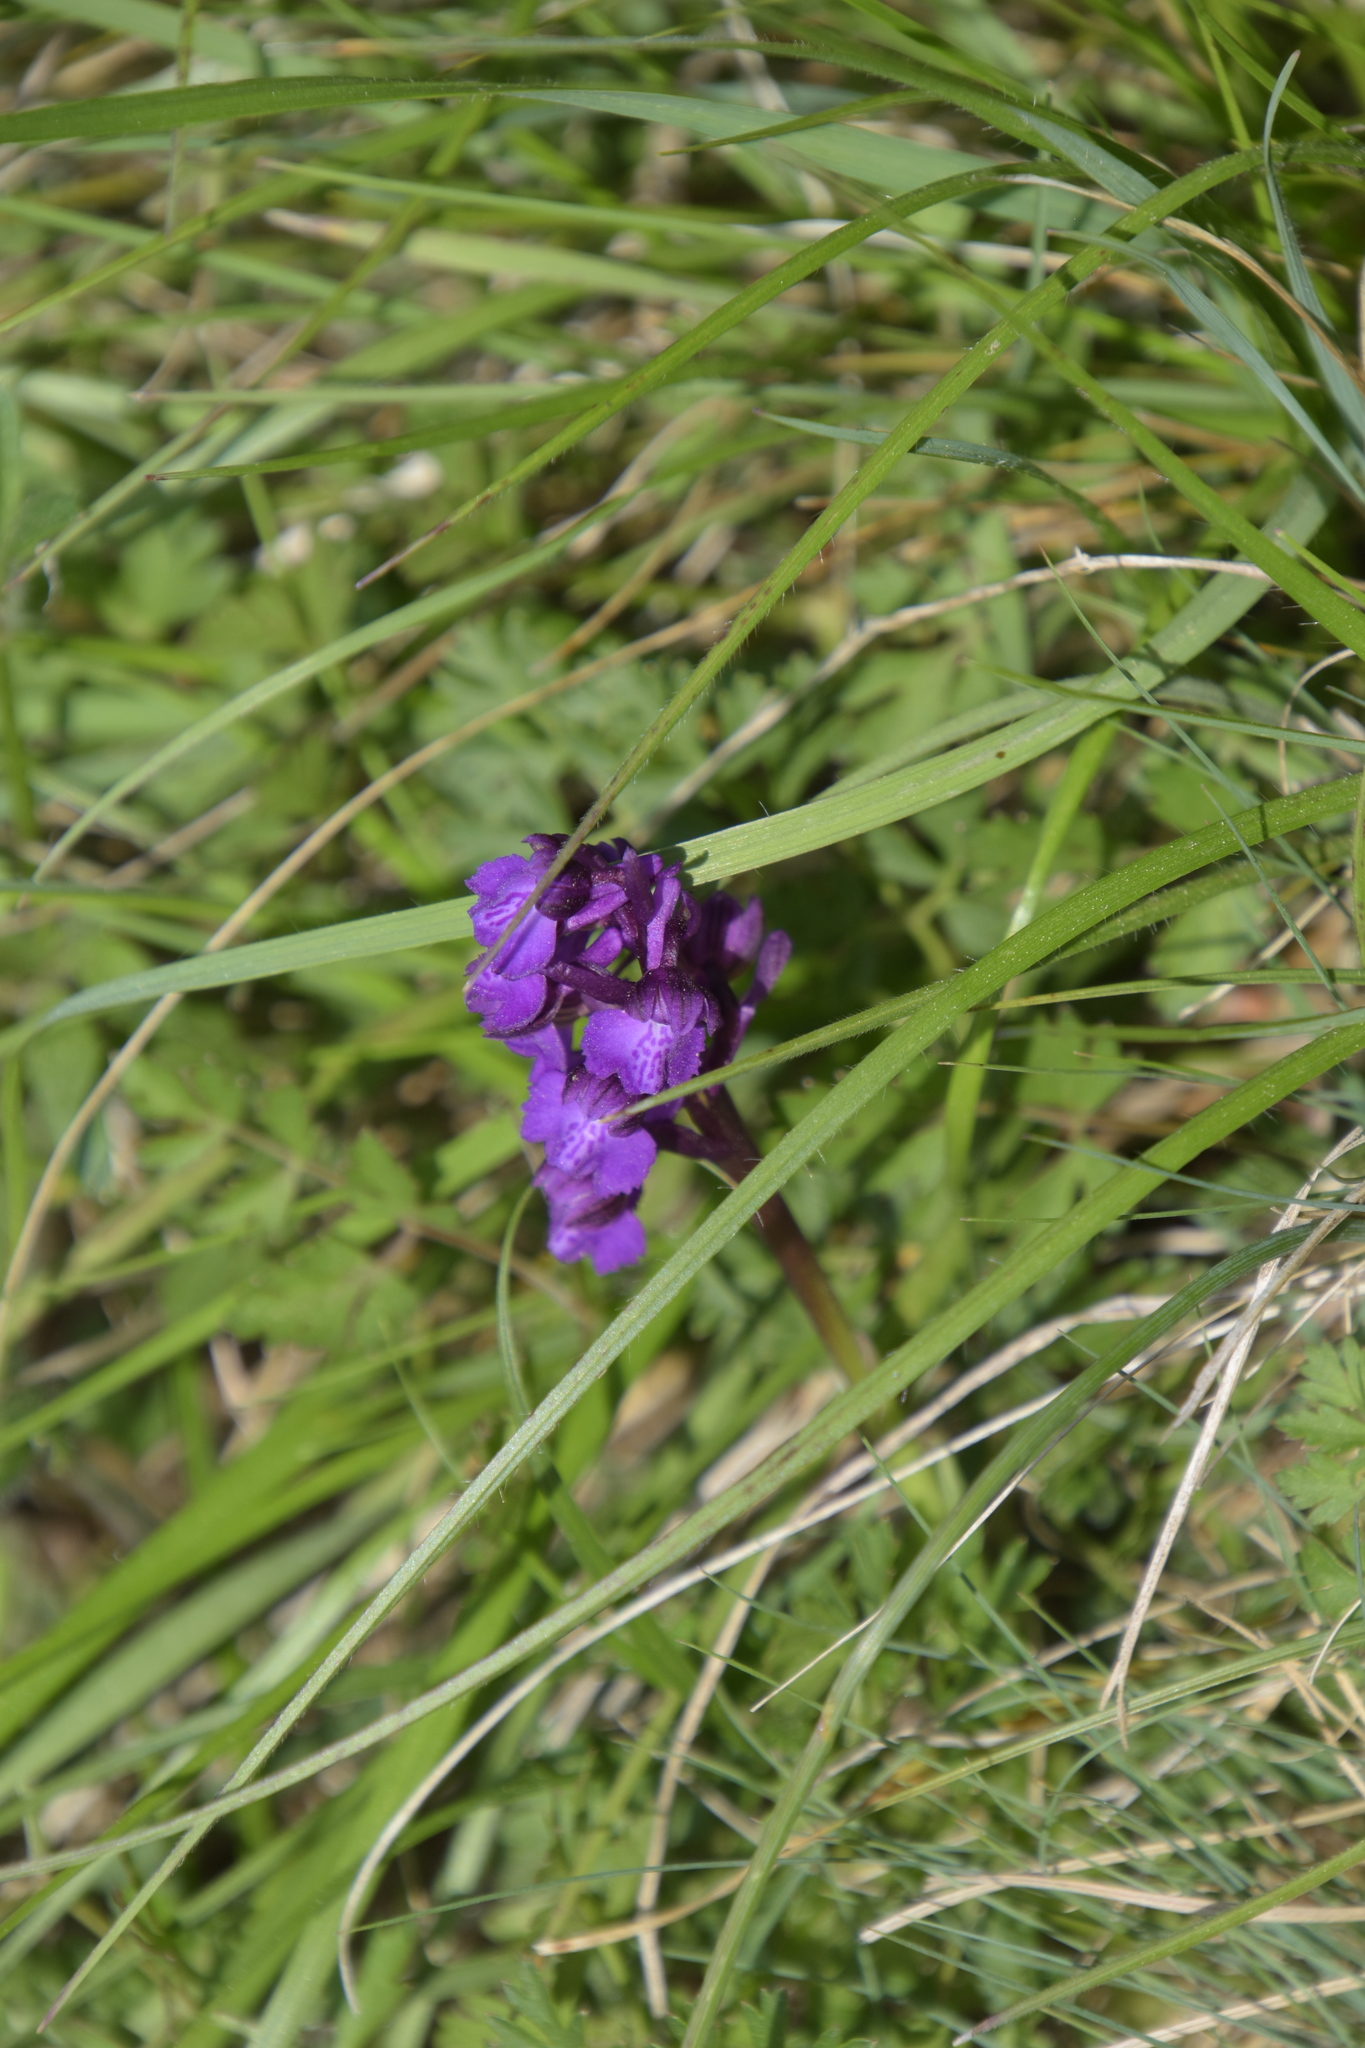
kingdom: Plantae
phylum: Tracheophyta
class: Liliopsida
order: Asparagales
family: Orchidaceae
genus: Anacamptis
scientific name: Anacamptis morio
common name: Green-winged orchid
